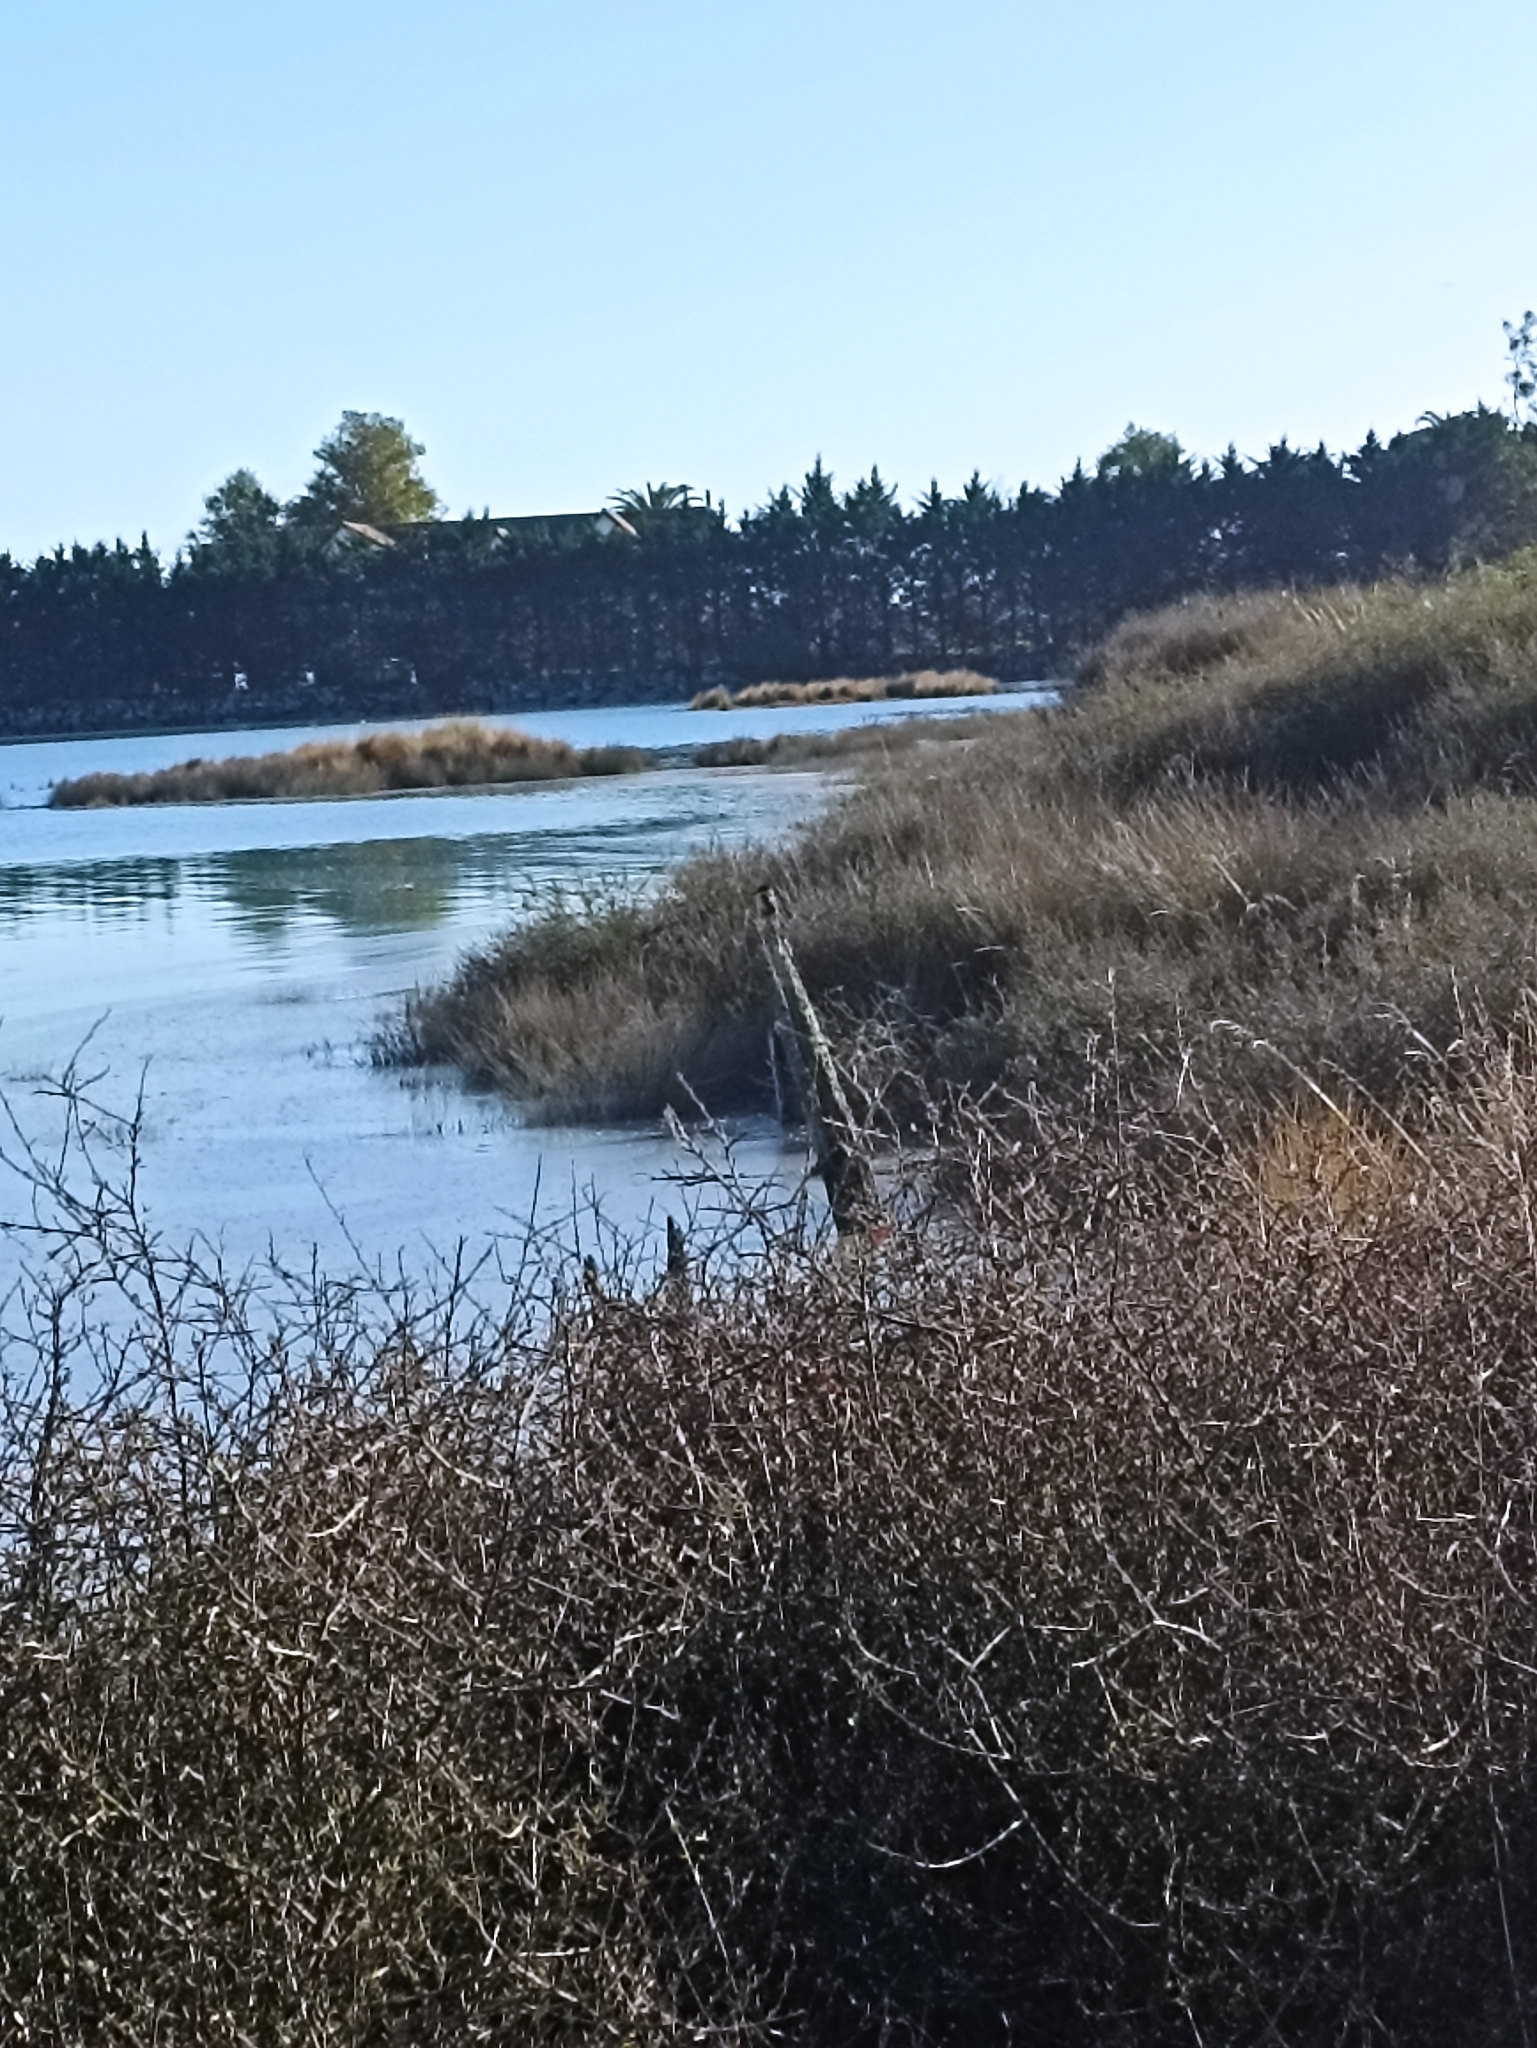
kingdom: Animalia
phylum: Chordata
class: Aves
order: Coraciiformes
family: Alcedinidae
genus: Todiramphus
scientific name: Todiramphus sanctus
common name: Sacred kingfisher
